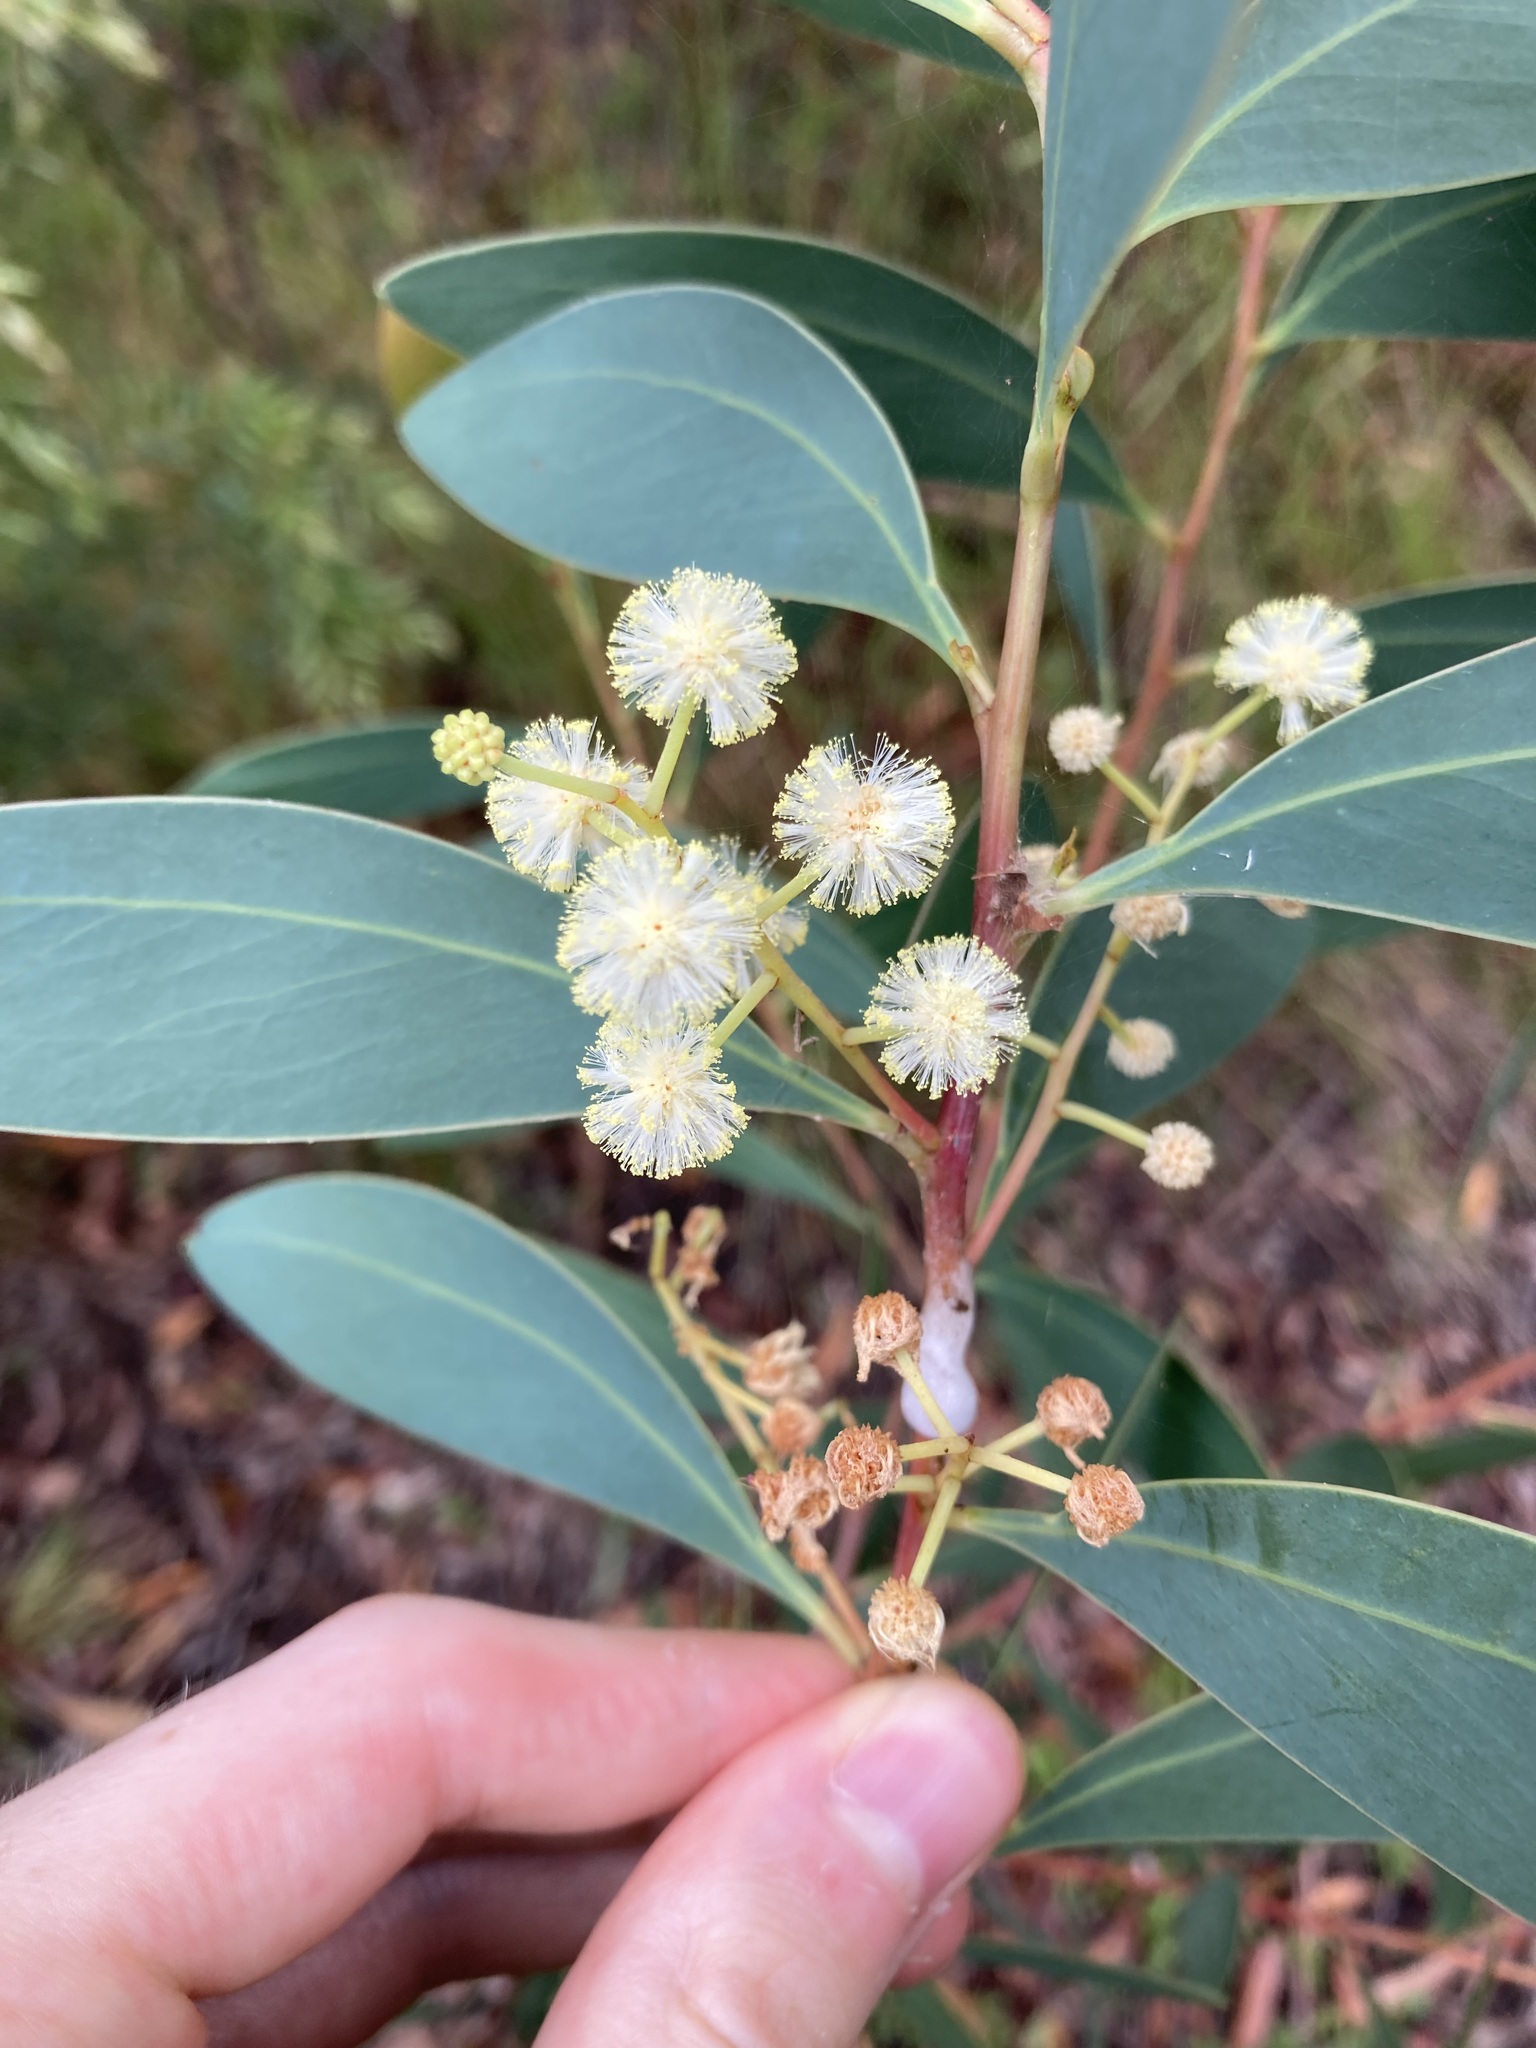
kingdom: Plantae
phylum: Tracheophyta
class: Magnoliopsida
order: Fabales
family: Fabaceae
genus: Acacia
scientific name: Acacia penninervis
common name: Hickory wattle
